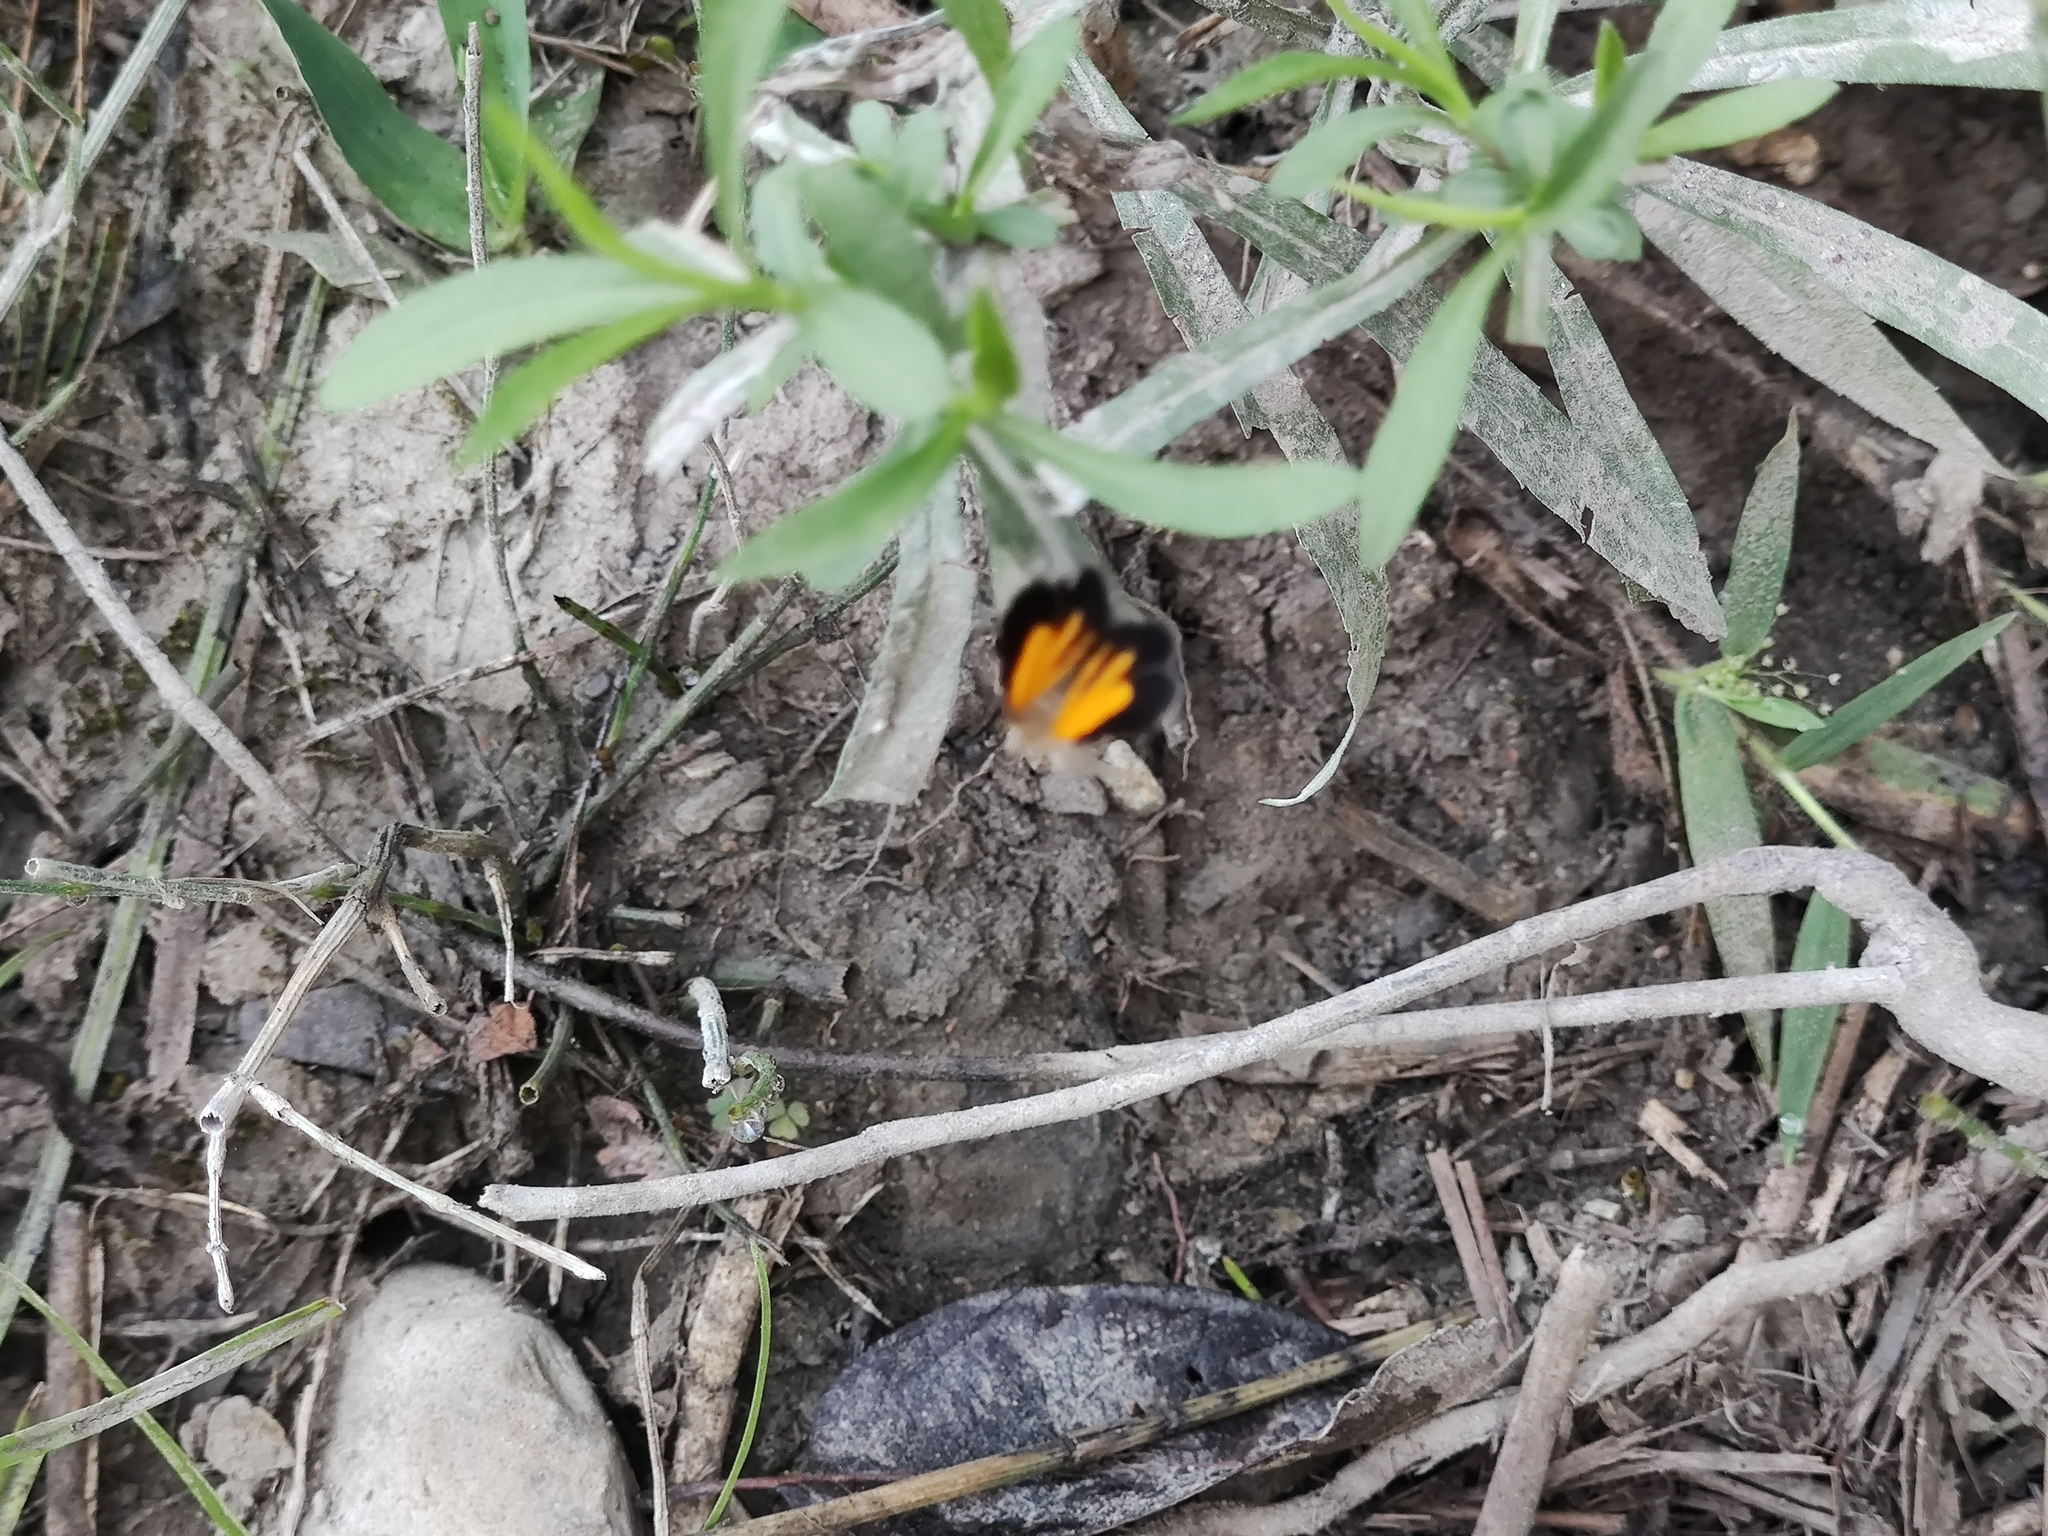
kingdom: Animalia
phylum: Arthropoda
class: Insecta
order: Lepidoptera
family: Geometridae
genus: Heterusia
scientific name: Heterusia atalantata
